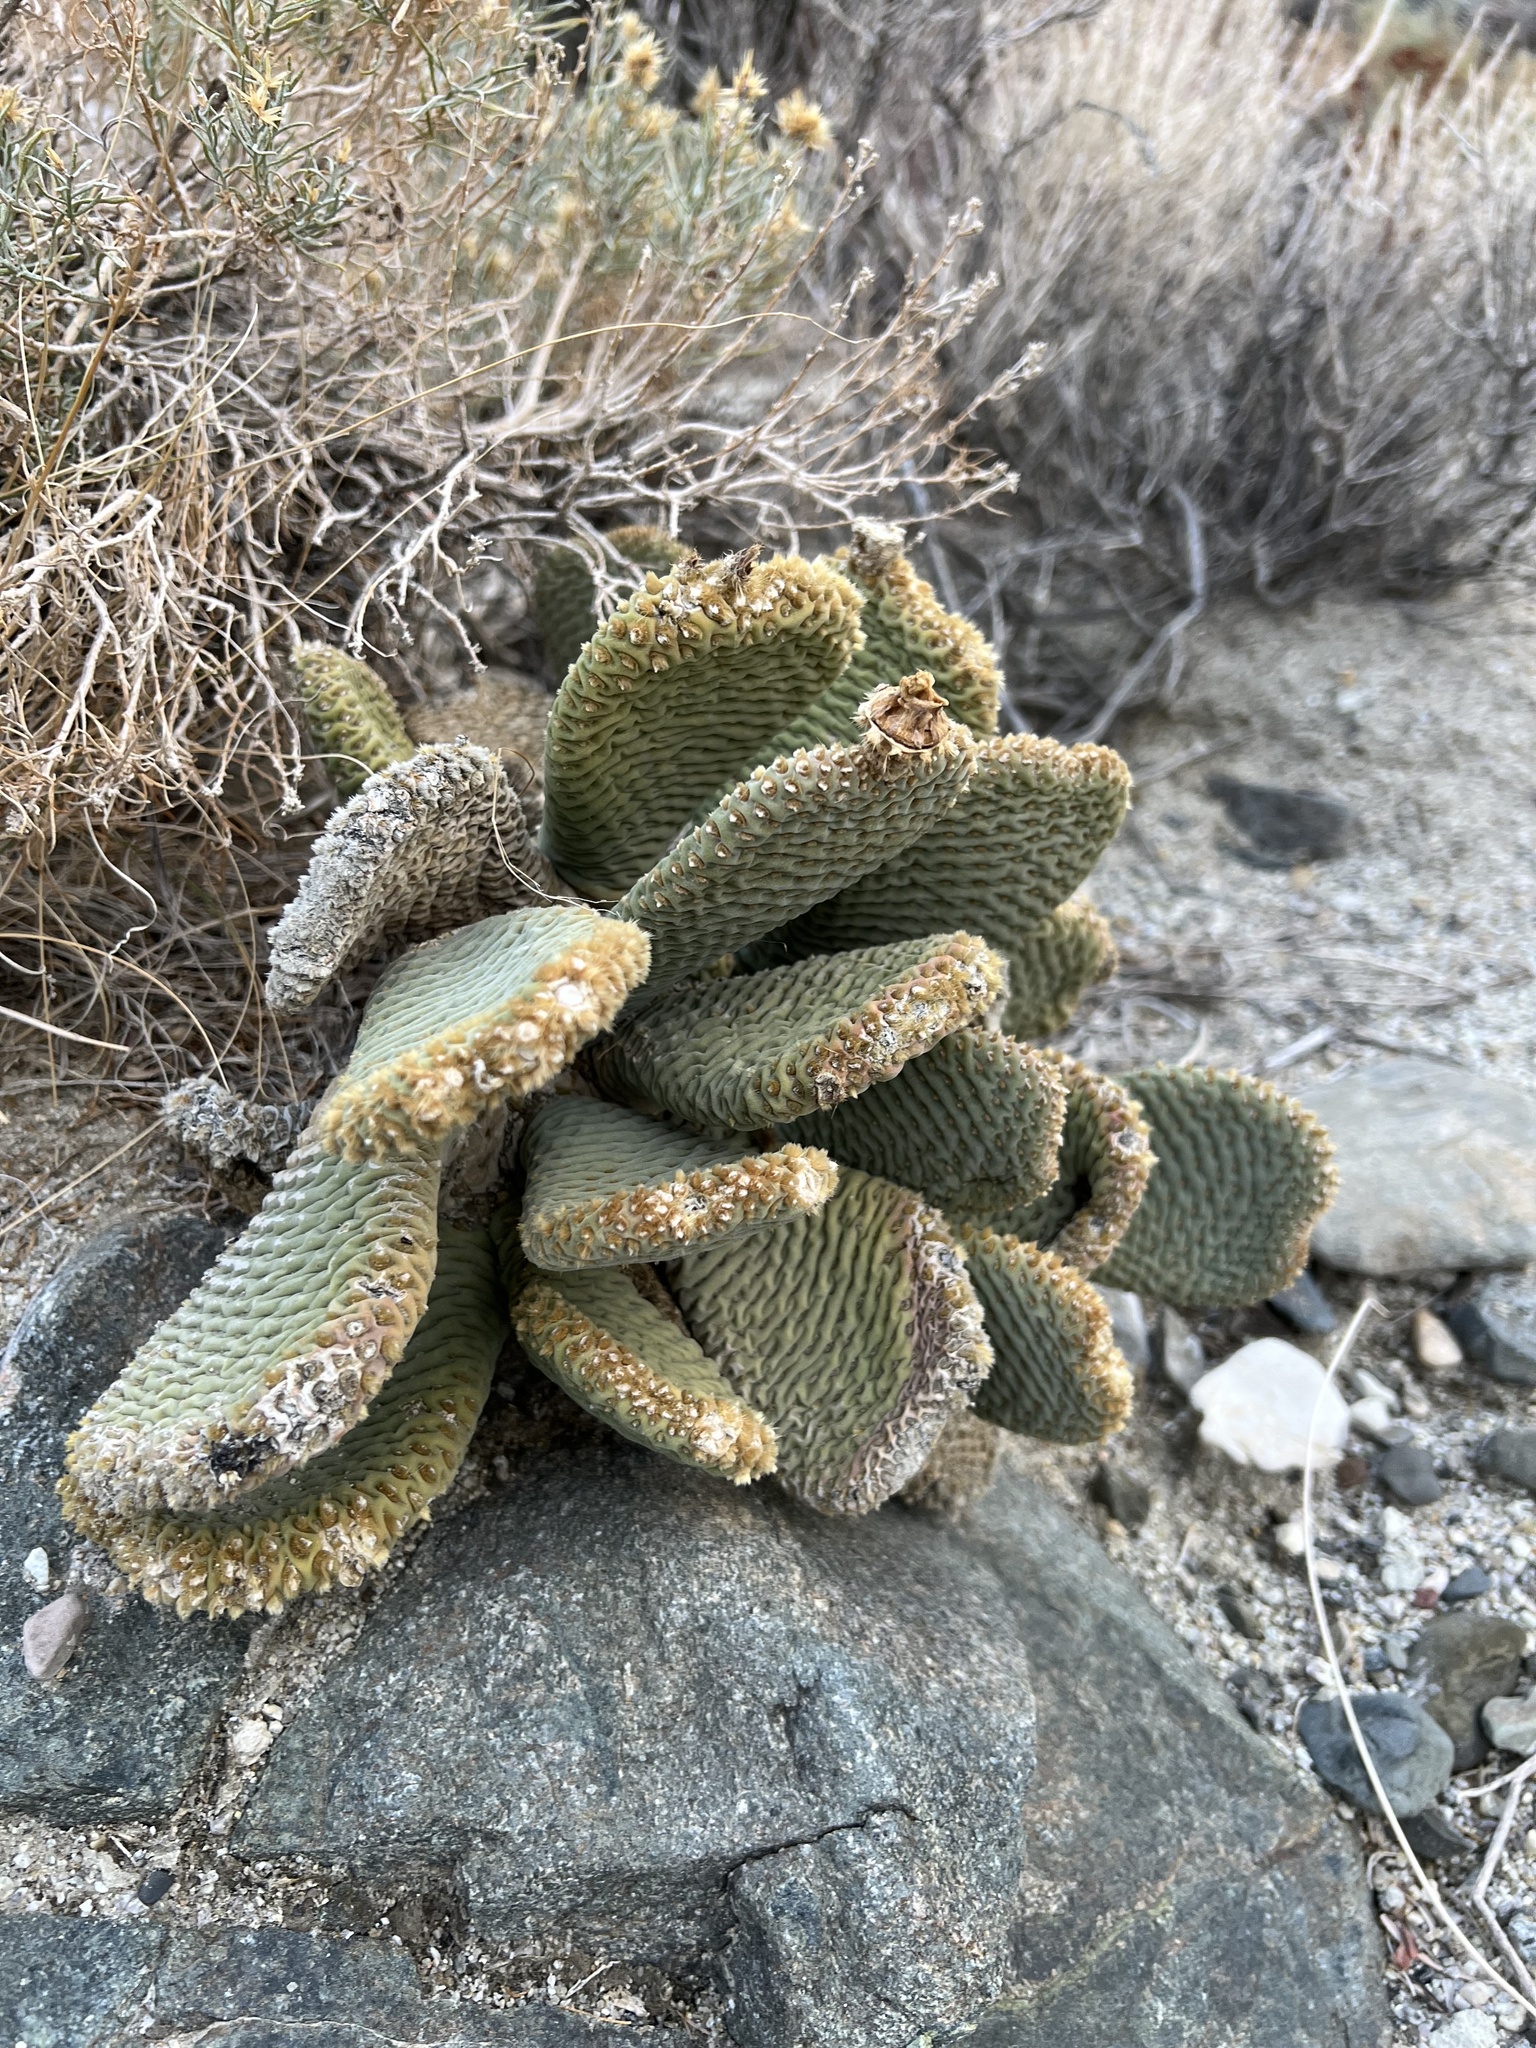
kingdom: Plantae
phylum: Tracheophyta
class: Magnoliopsida
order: Caryophyllales
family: Cactaceae
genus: Opuntia
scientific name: Opuntia basilaris
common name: Beavertail prickly-pear
